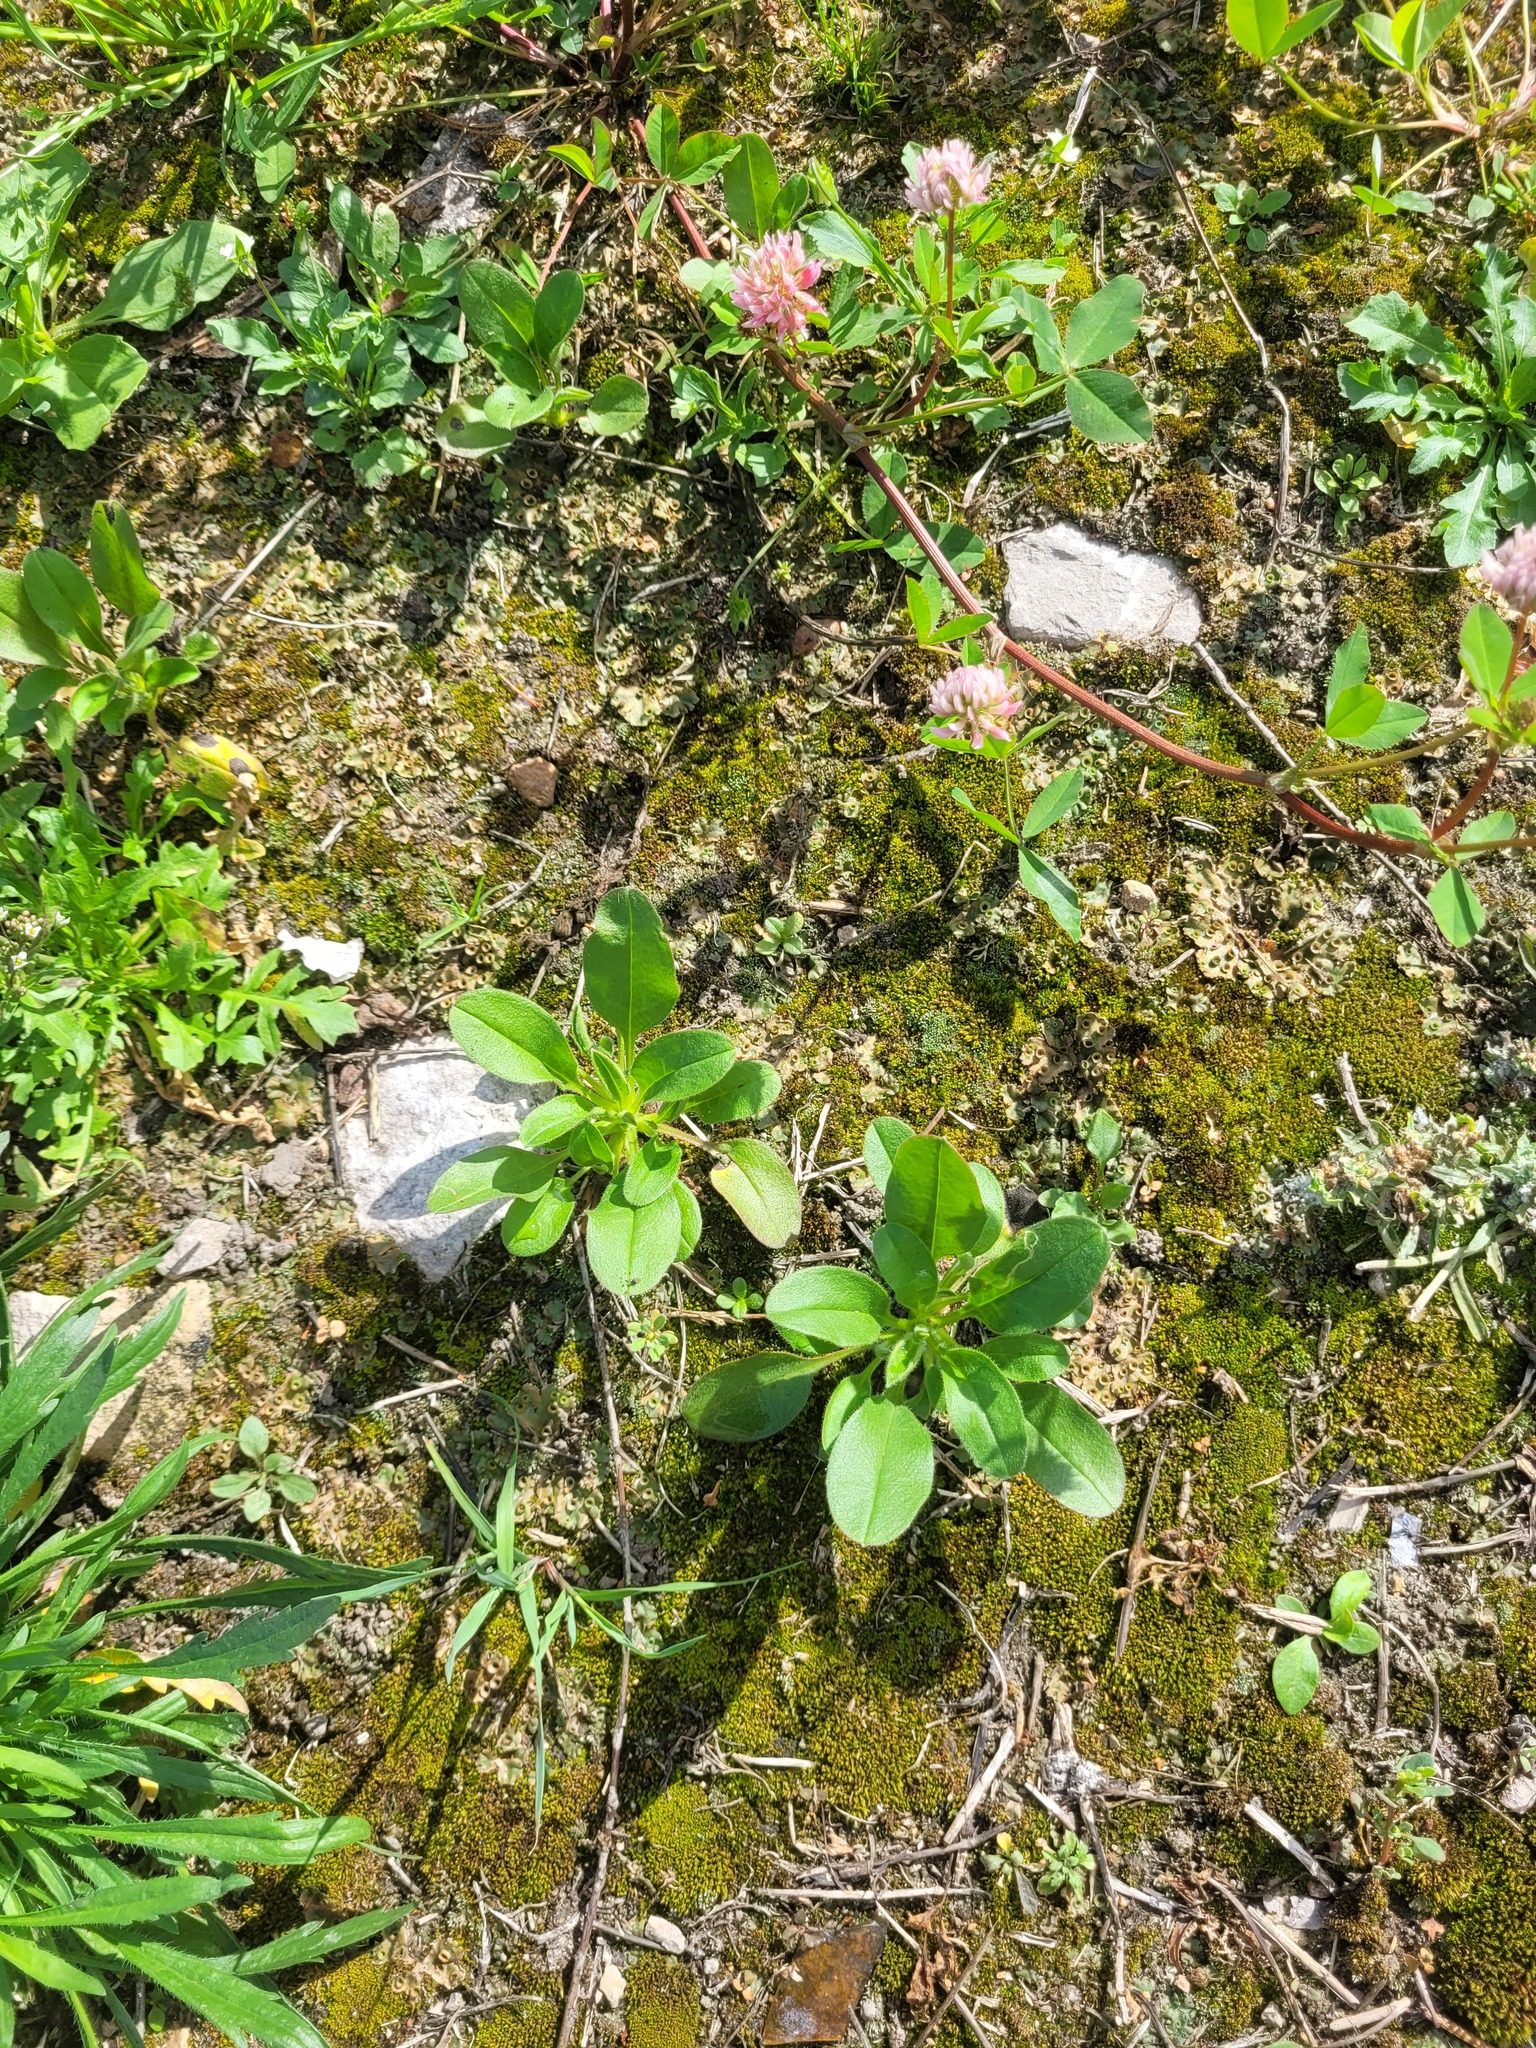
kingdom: Plantae
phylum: Tracheophyta
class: Magnoliopsida
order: Boraginales
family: Boraginaceae
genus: Myosotis
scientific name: Myosotis arvensis
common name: Field forget-me-not
